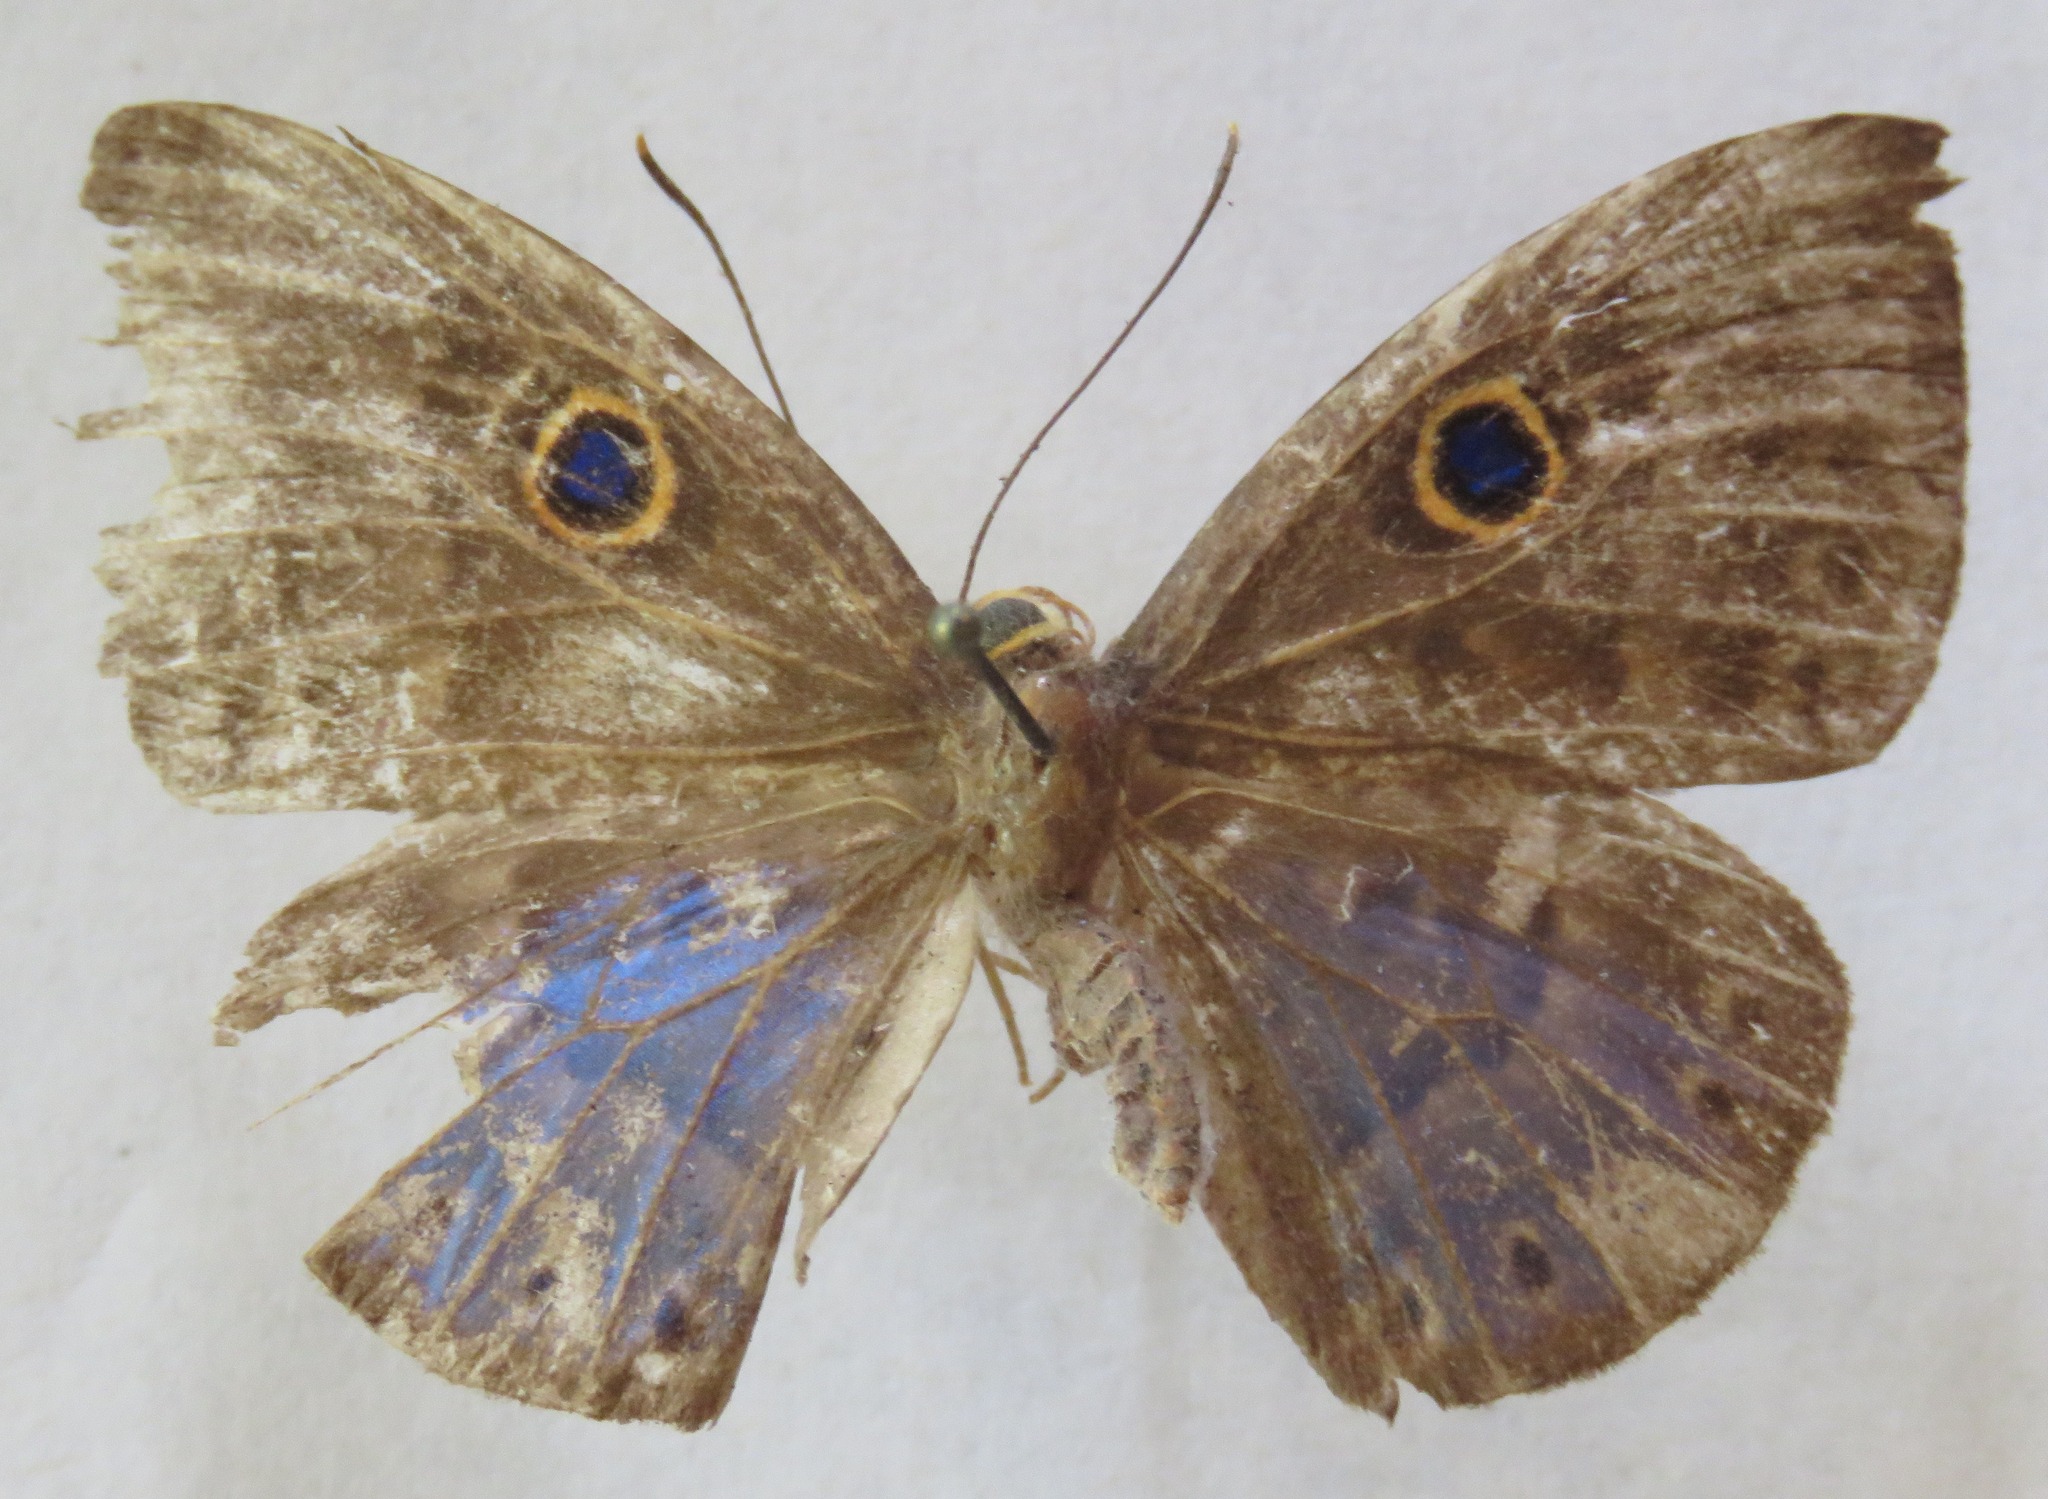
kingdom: Animalia
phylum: Cnidaria
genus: Eurybia
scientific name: Eurybia lycisca
